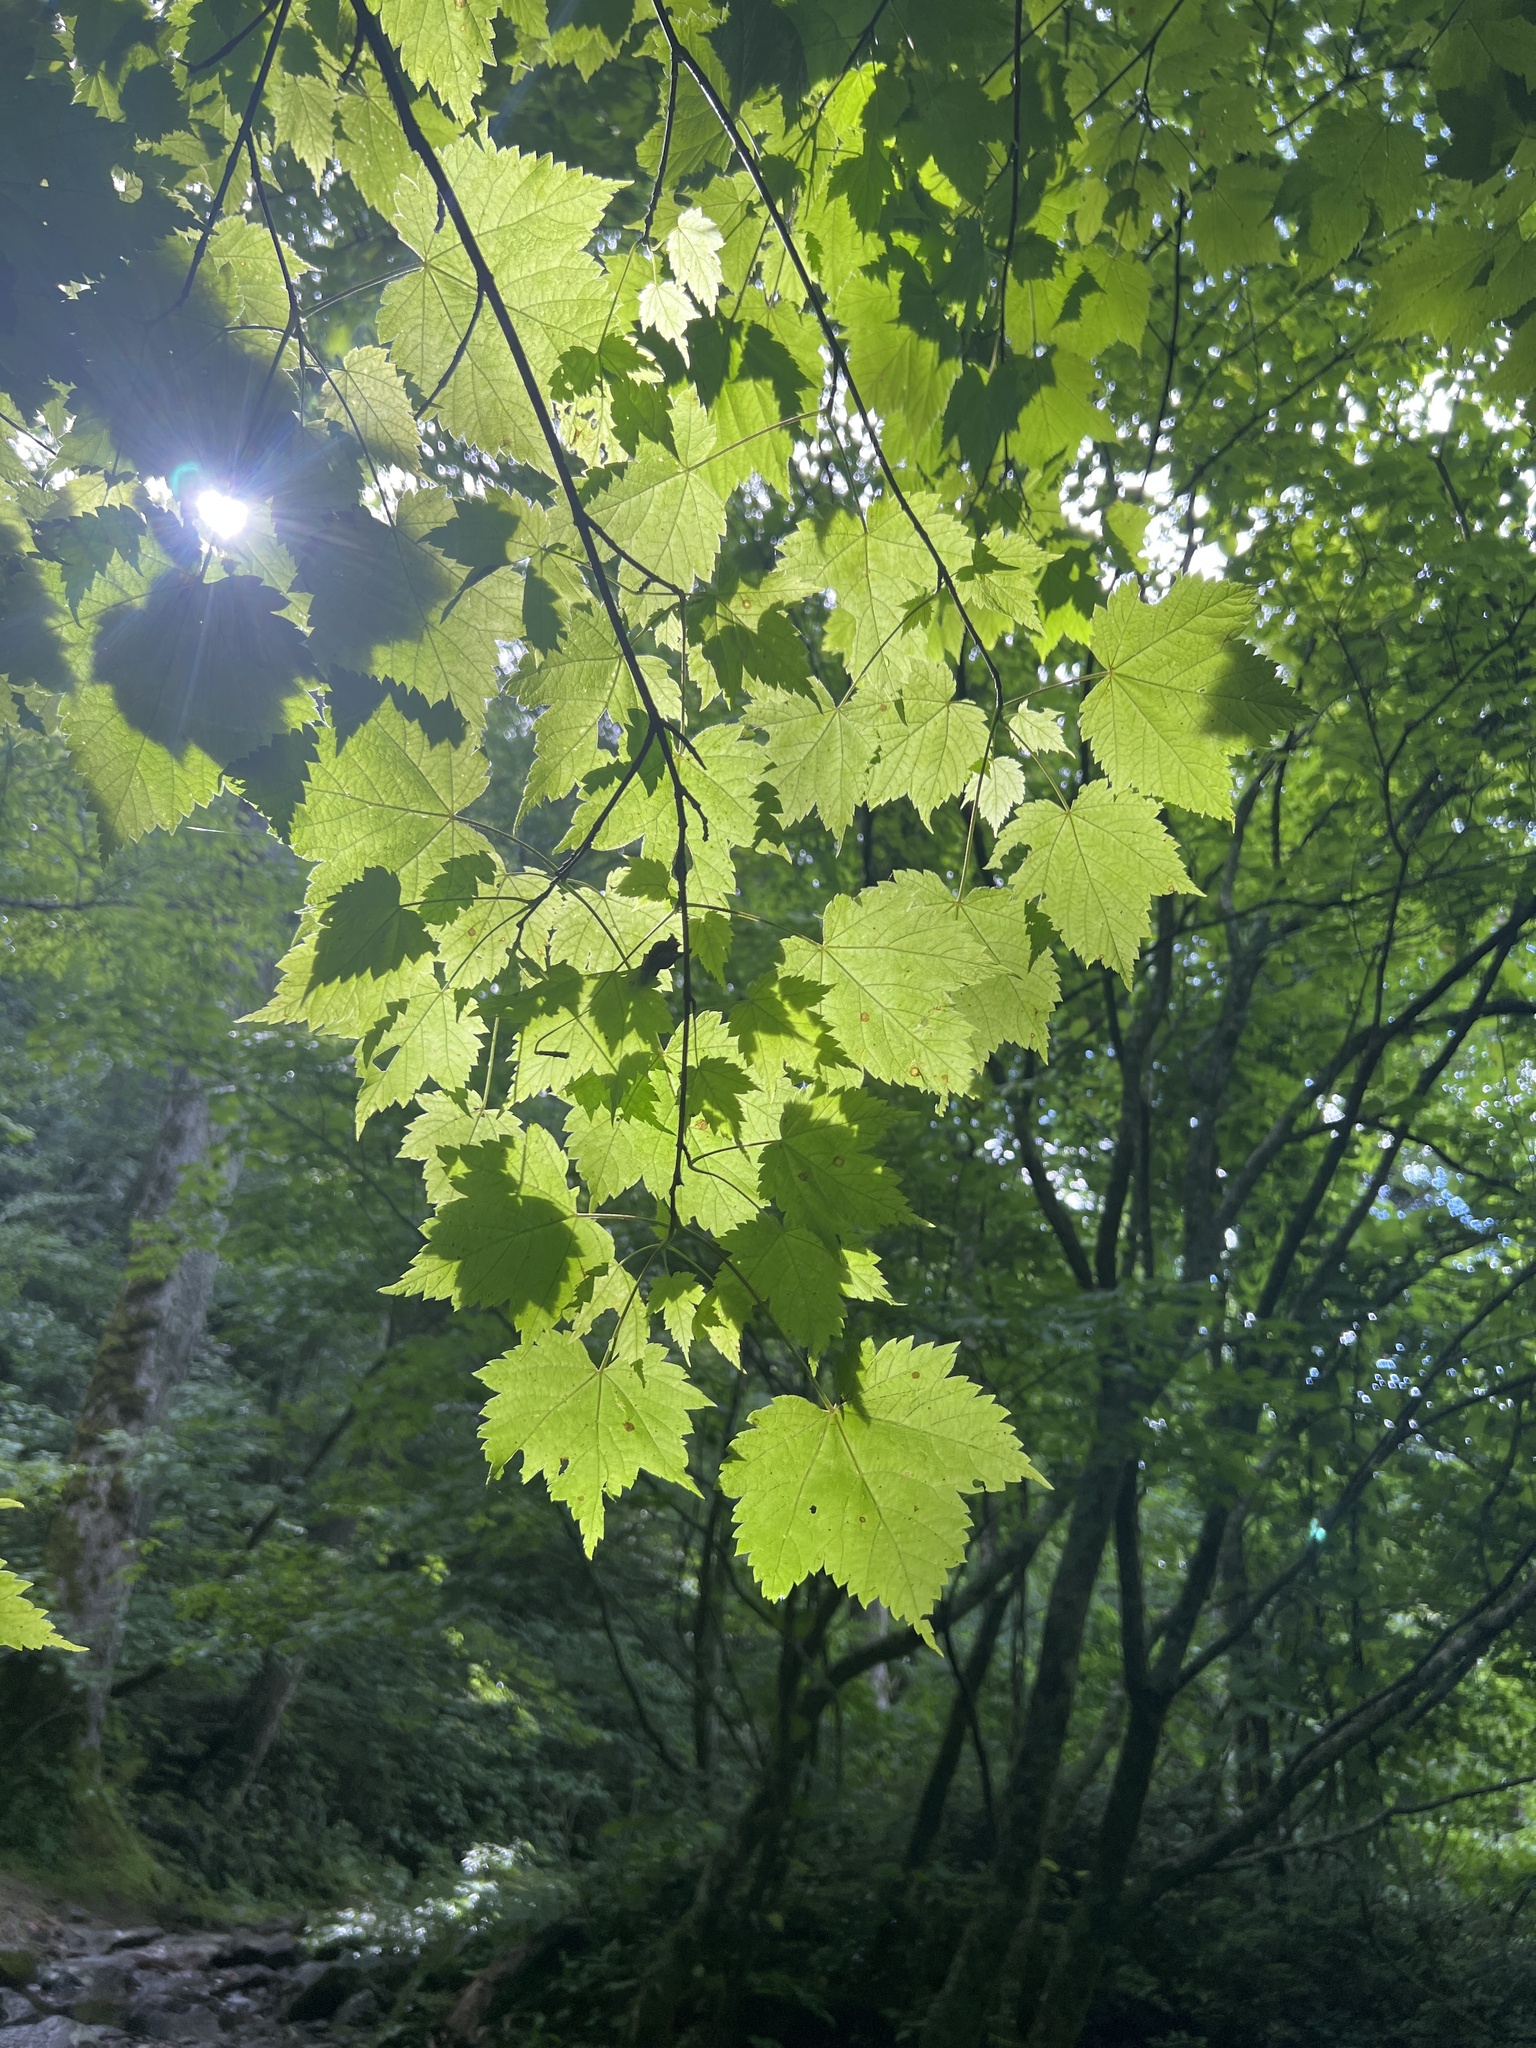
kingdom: Plantae
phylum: Tracheophyta
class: Magnoliopsida
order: Sapindales
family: Sapindaceae
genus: Acer
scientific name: Acer spicatum
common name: Mountain maple
